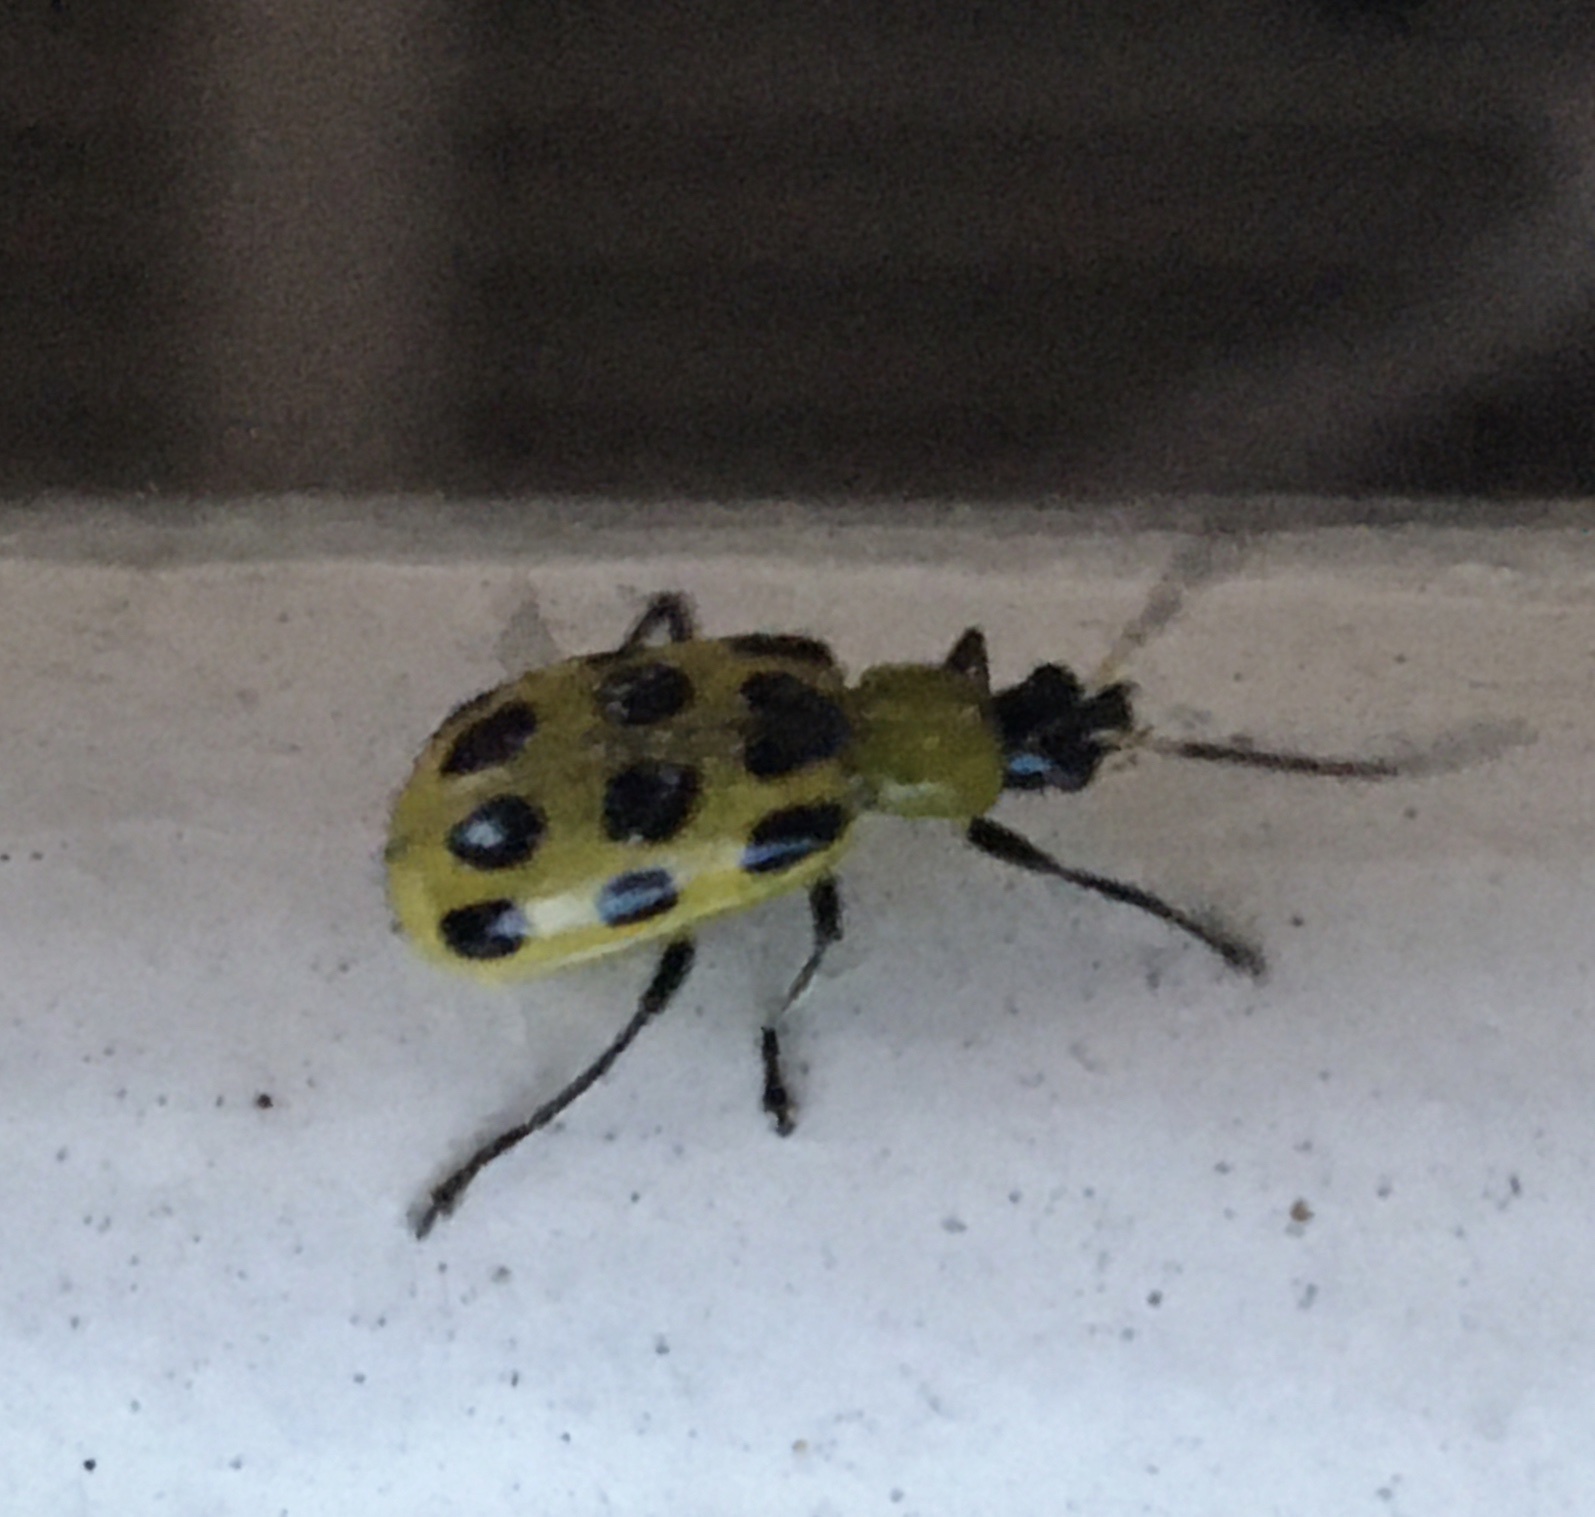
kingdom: Animalia
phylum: Arthropoda
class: Insecta
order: Coleoptera
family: Chrysomelidae
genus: Diabrotica
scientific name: Diabrotica undecimpunctata
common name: Spotted cucumber beetle
